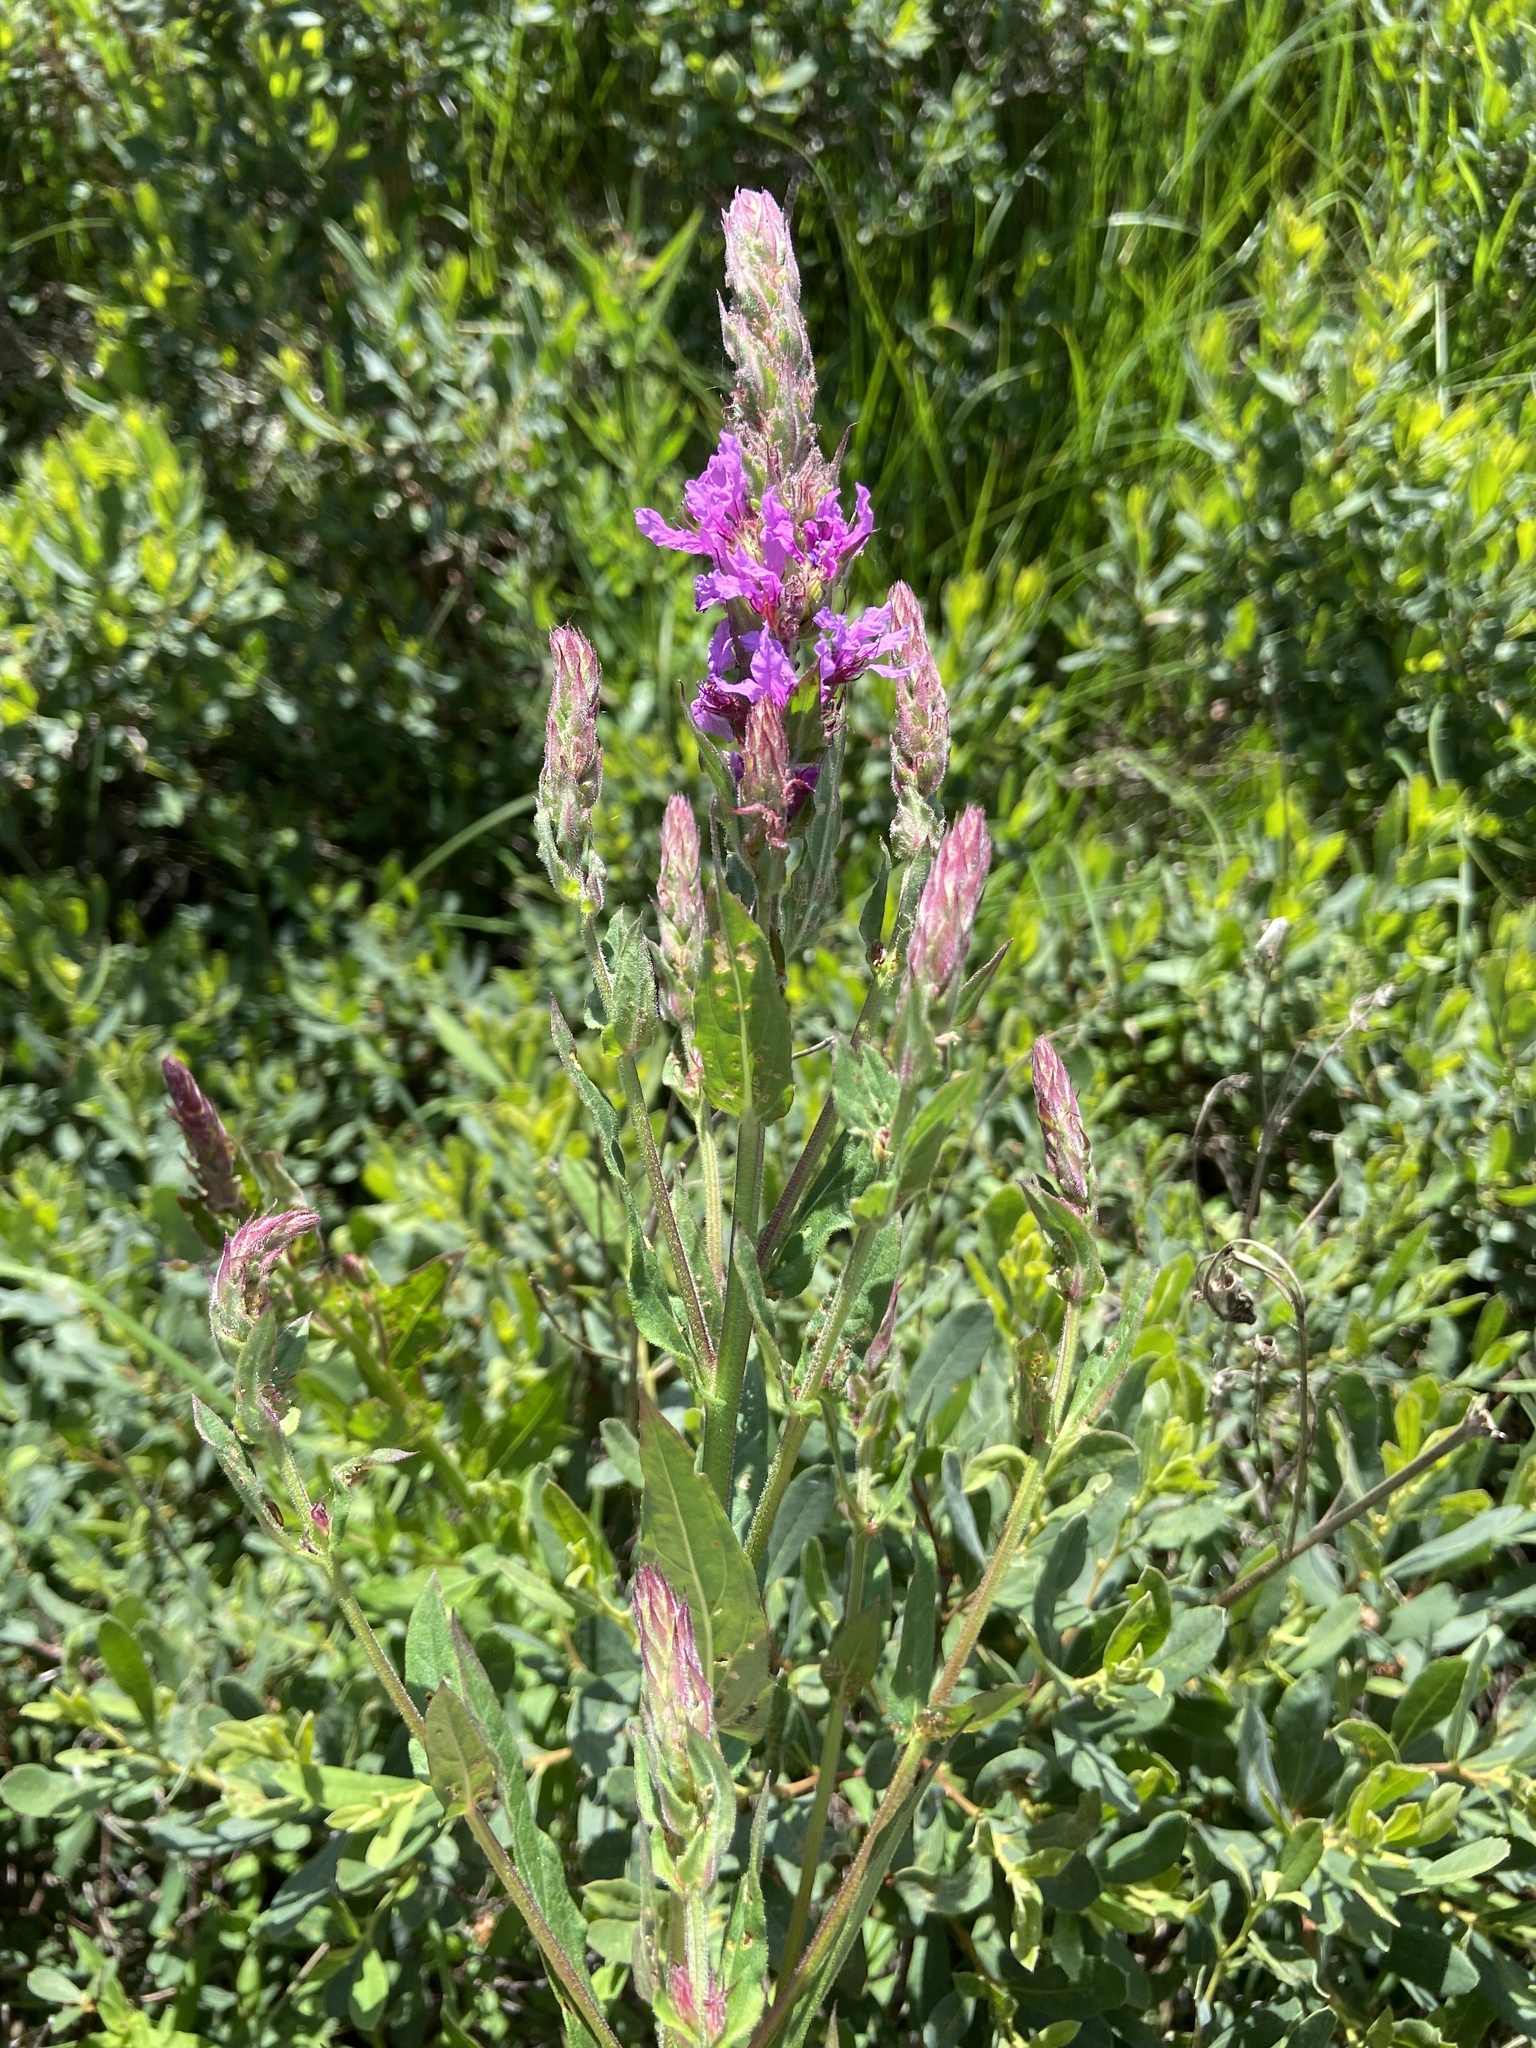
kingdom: Plantae
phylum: Tracheophyta
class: Magnoliopsida
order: Myrtales
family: Lythraceae
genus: Lythrum
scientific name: Lythrum salicaria
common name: Purple loosestrife
